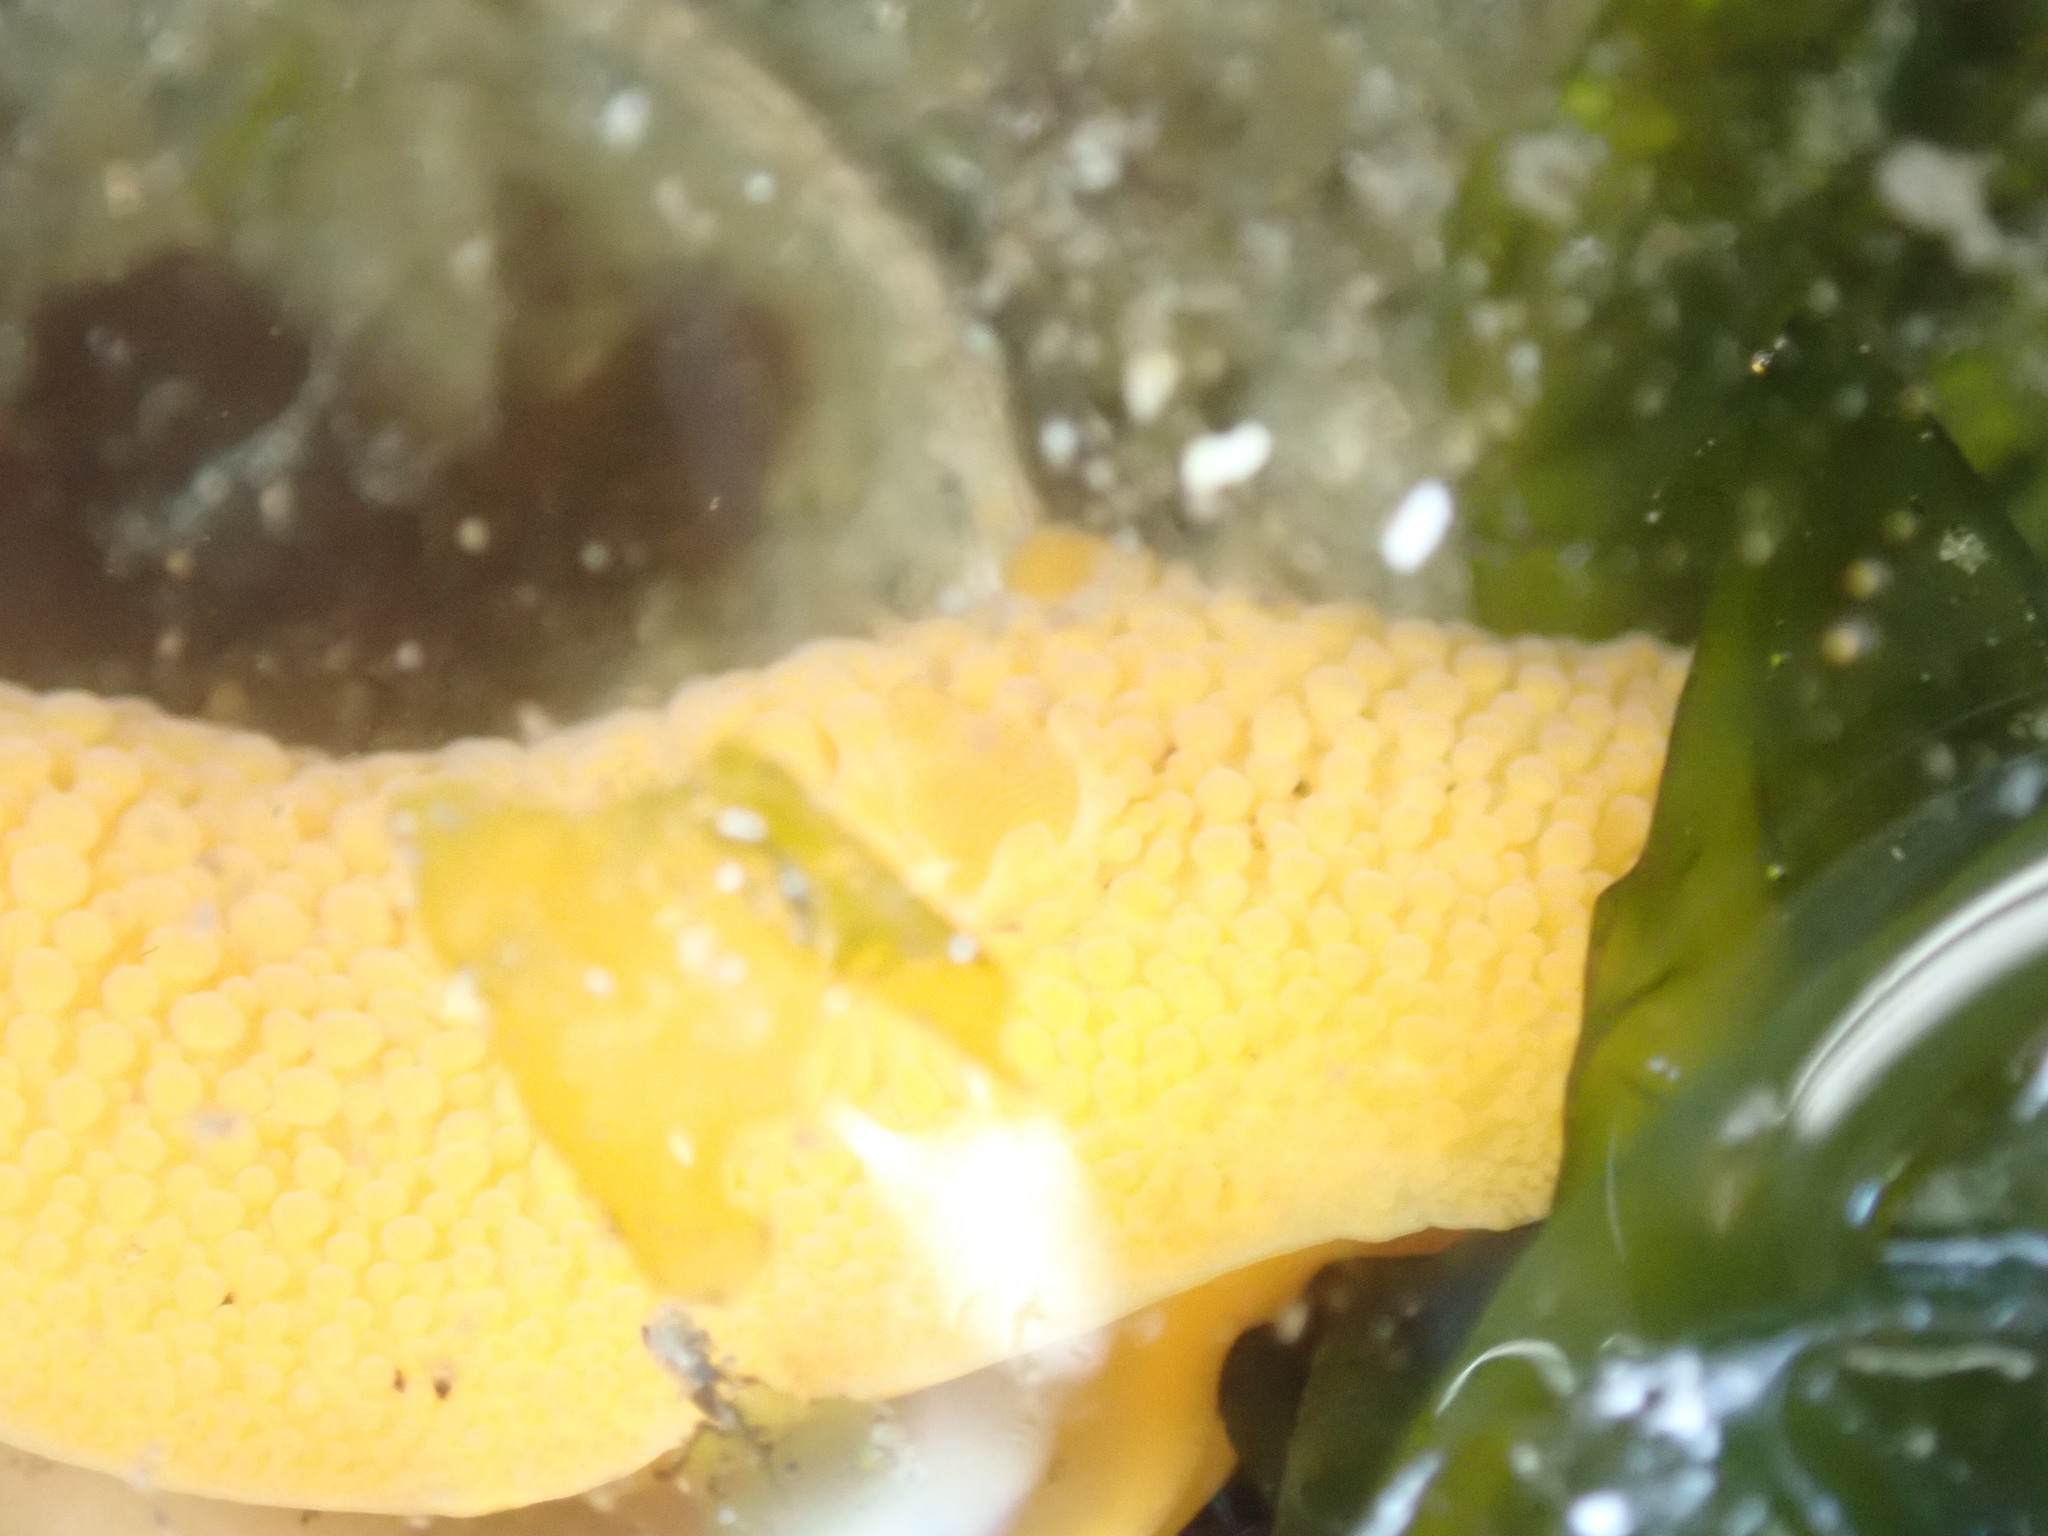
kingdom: Animalia
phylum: Mollusca
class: Gastropoda
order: Nudibranchia
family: Discodorididae
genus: Peltodoris
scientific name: Peltodoris nobilis
